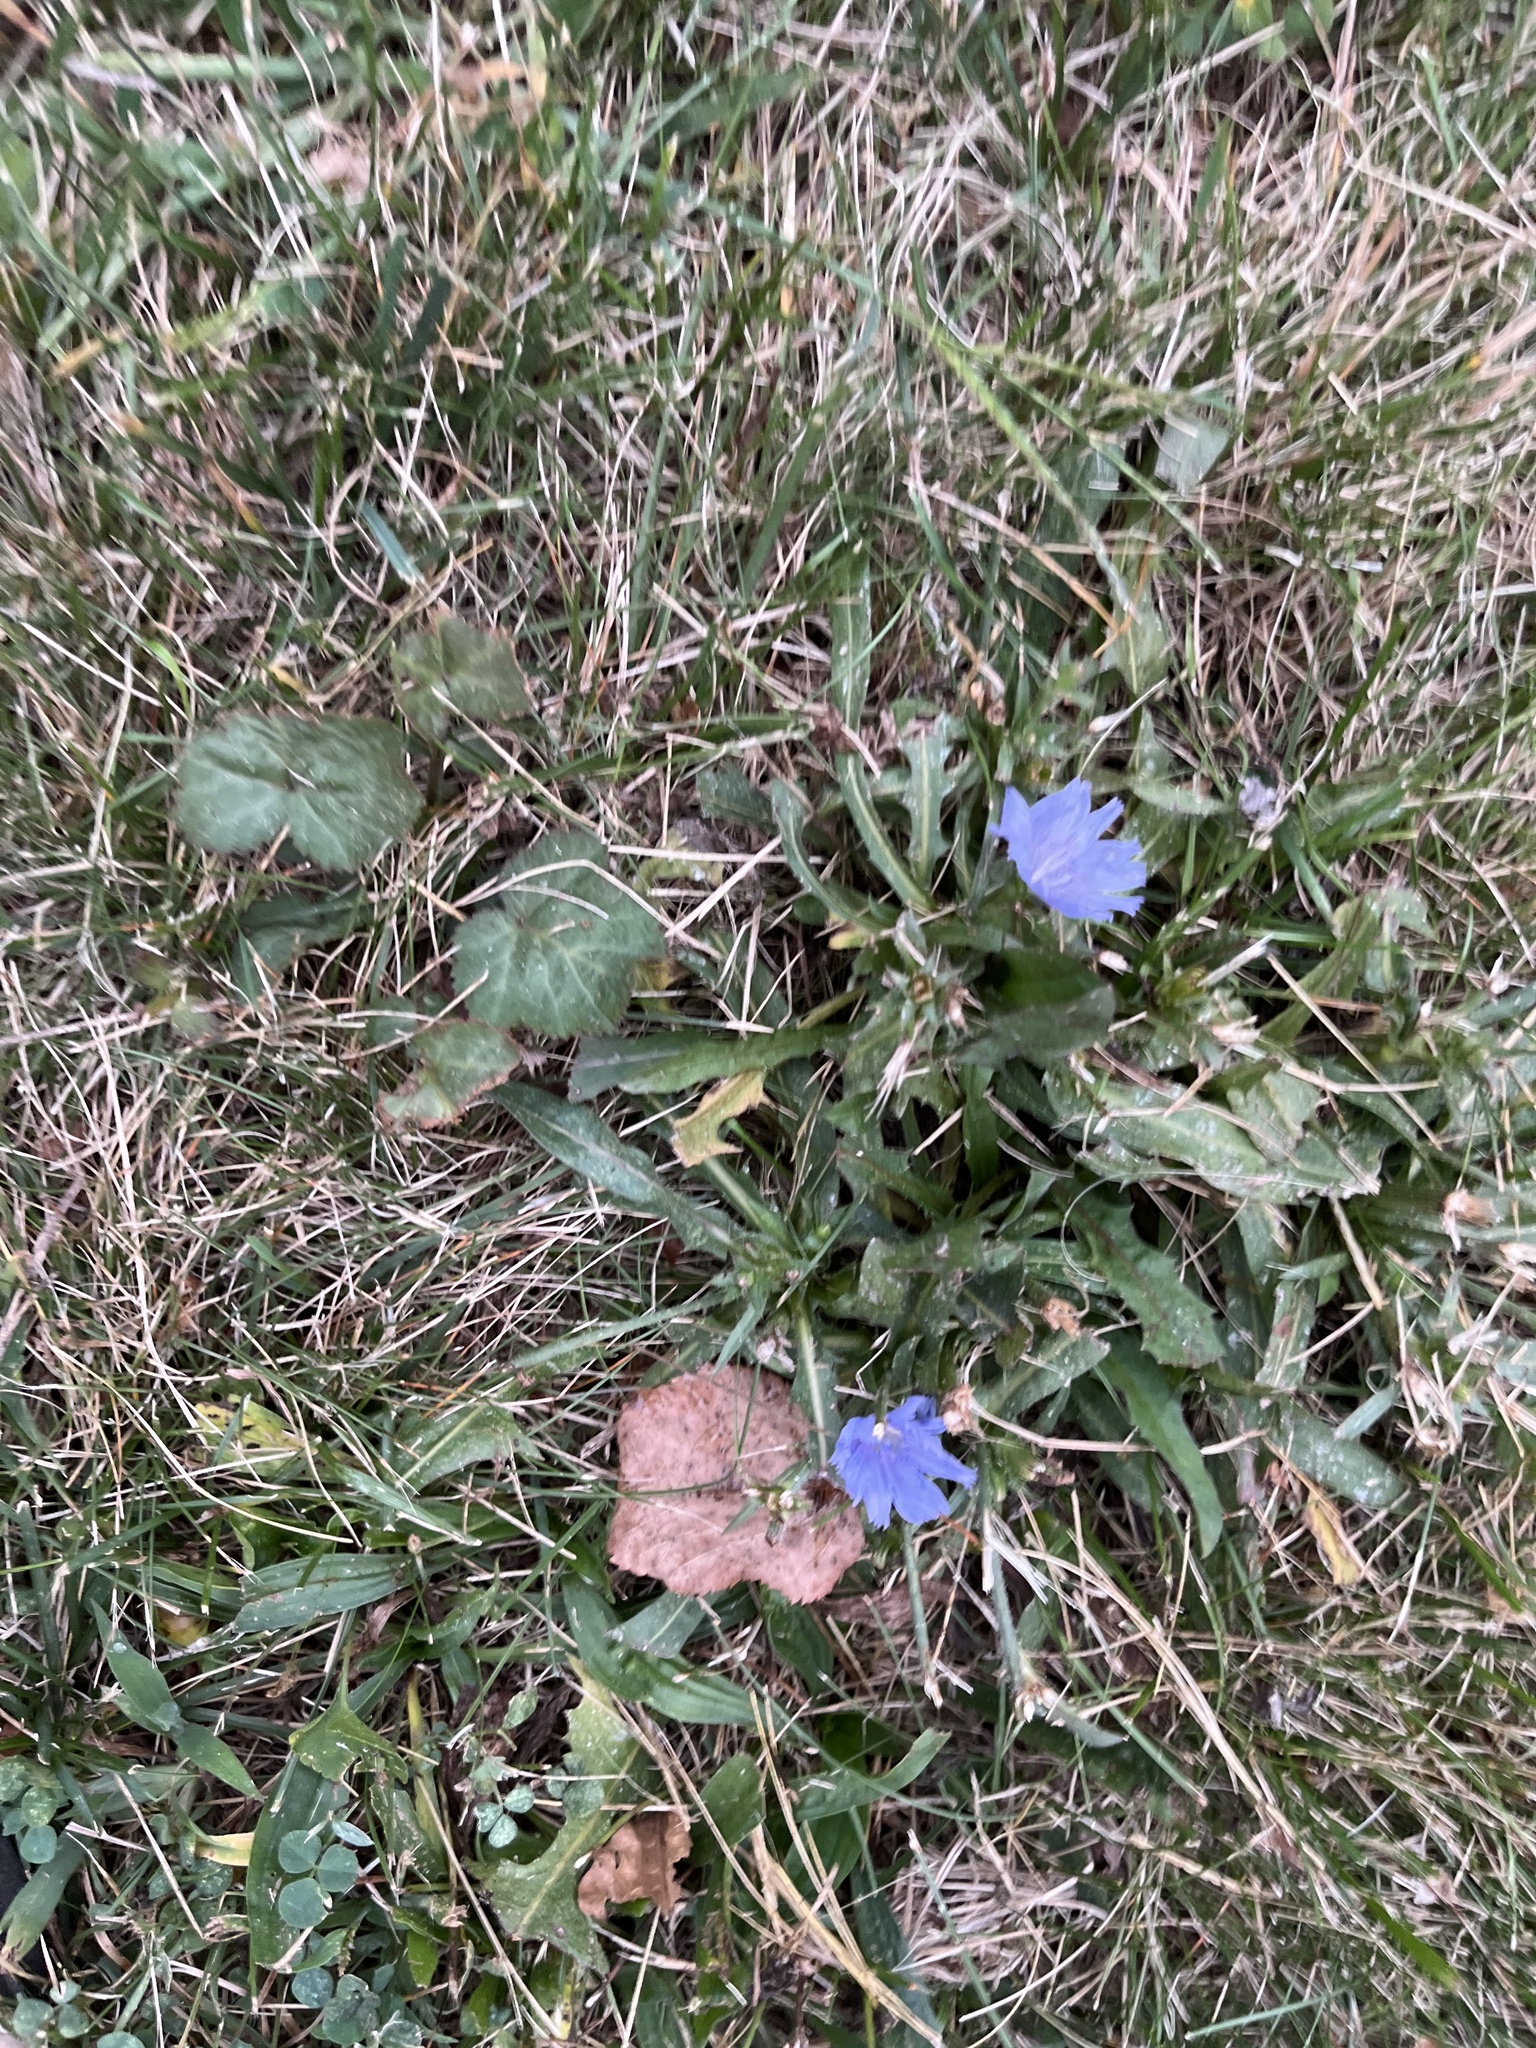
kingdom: Plantae
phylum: Tracheophyta
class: Magnoliopsida
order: Asterales
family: Asteraceae
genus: Cichorium
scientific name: Cichorium intybus
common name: Chicory
